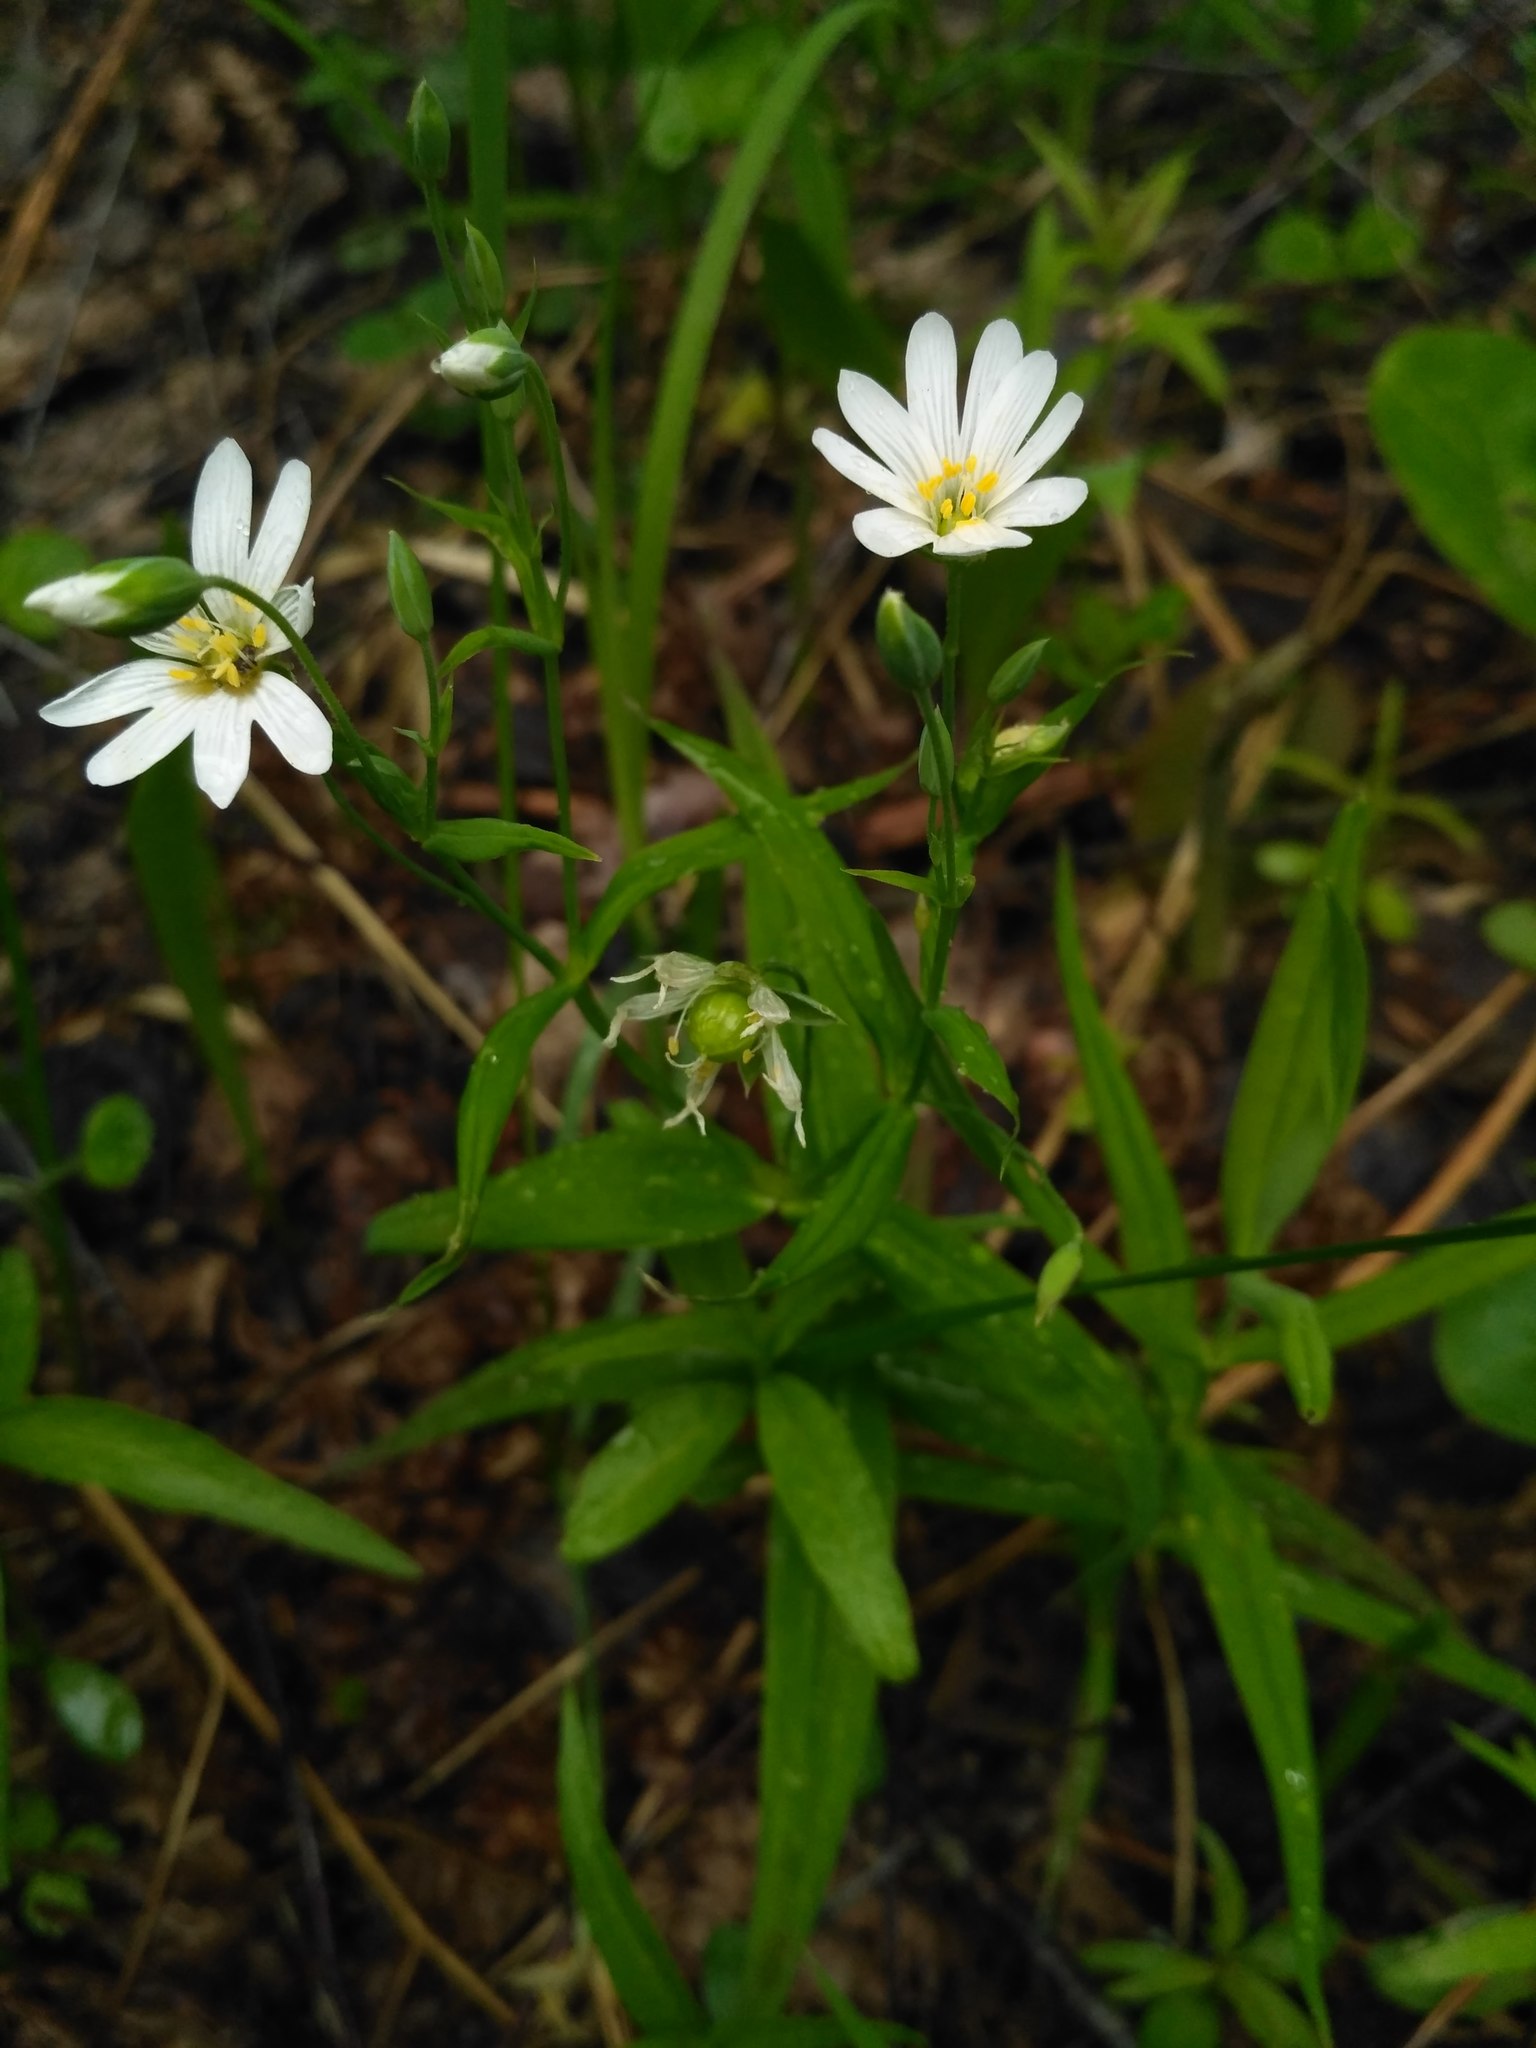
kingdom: Plantae
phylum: Tracheophyta
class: Magnoliopsida
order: Caryophyllales
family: Caryophyllaceae
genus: Rabelera
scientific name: Rabelera holostea
